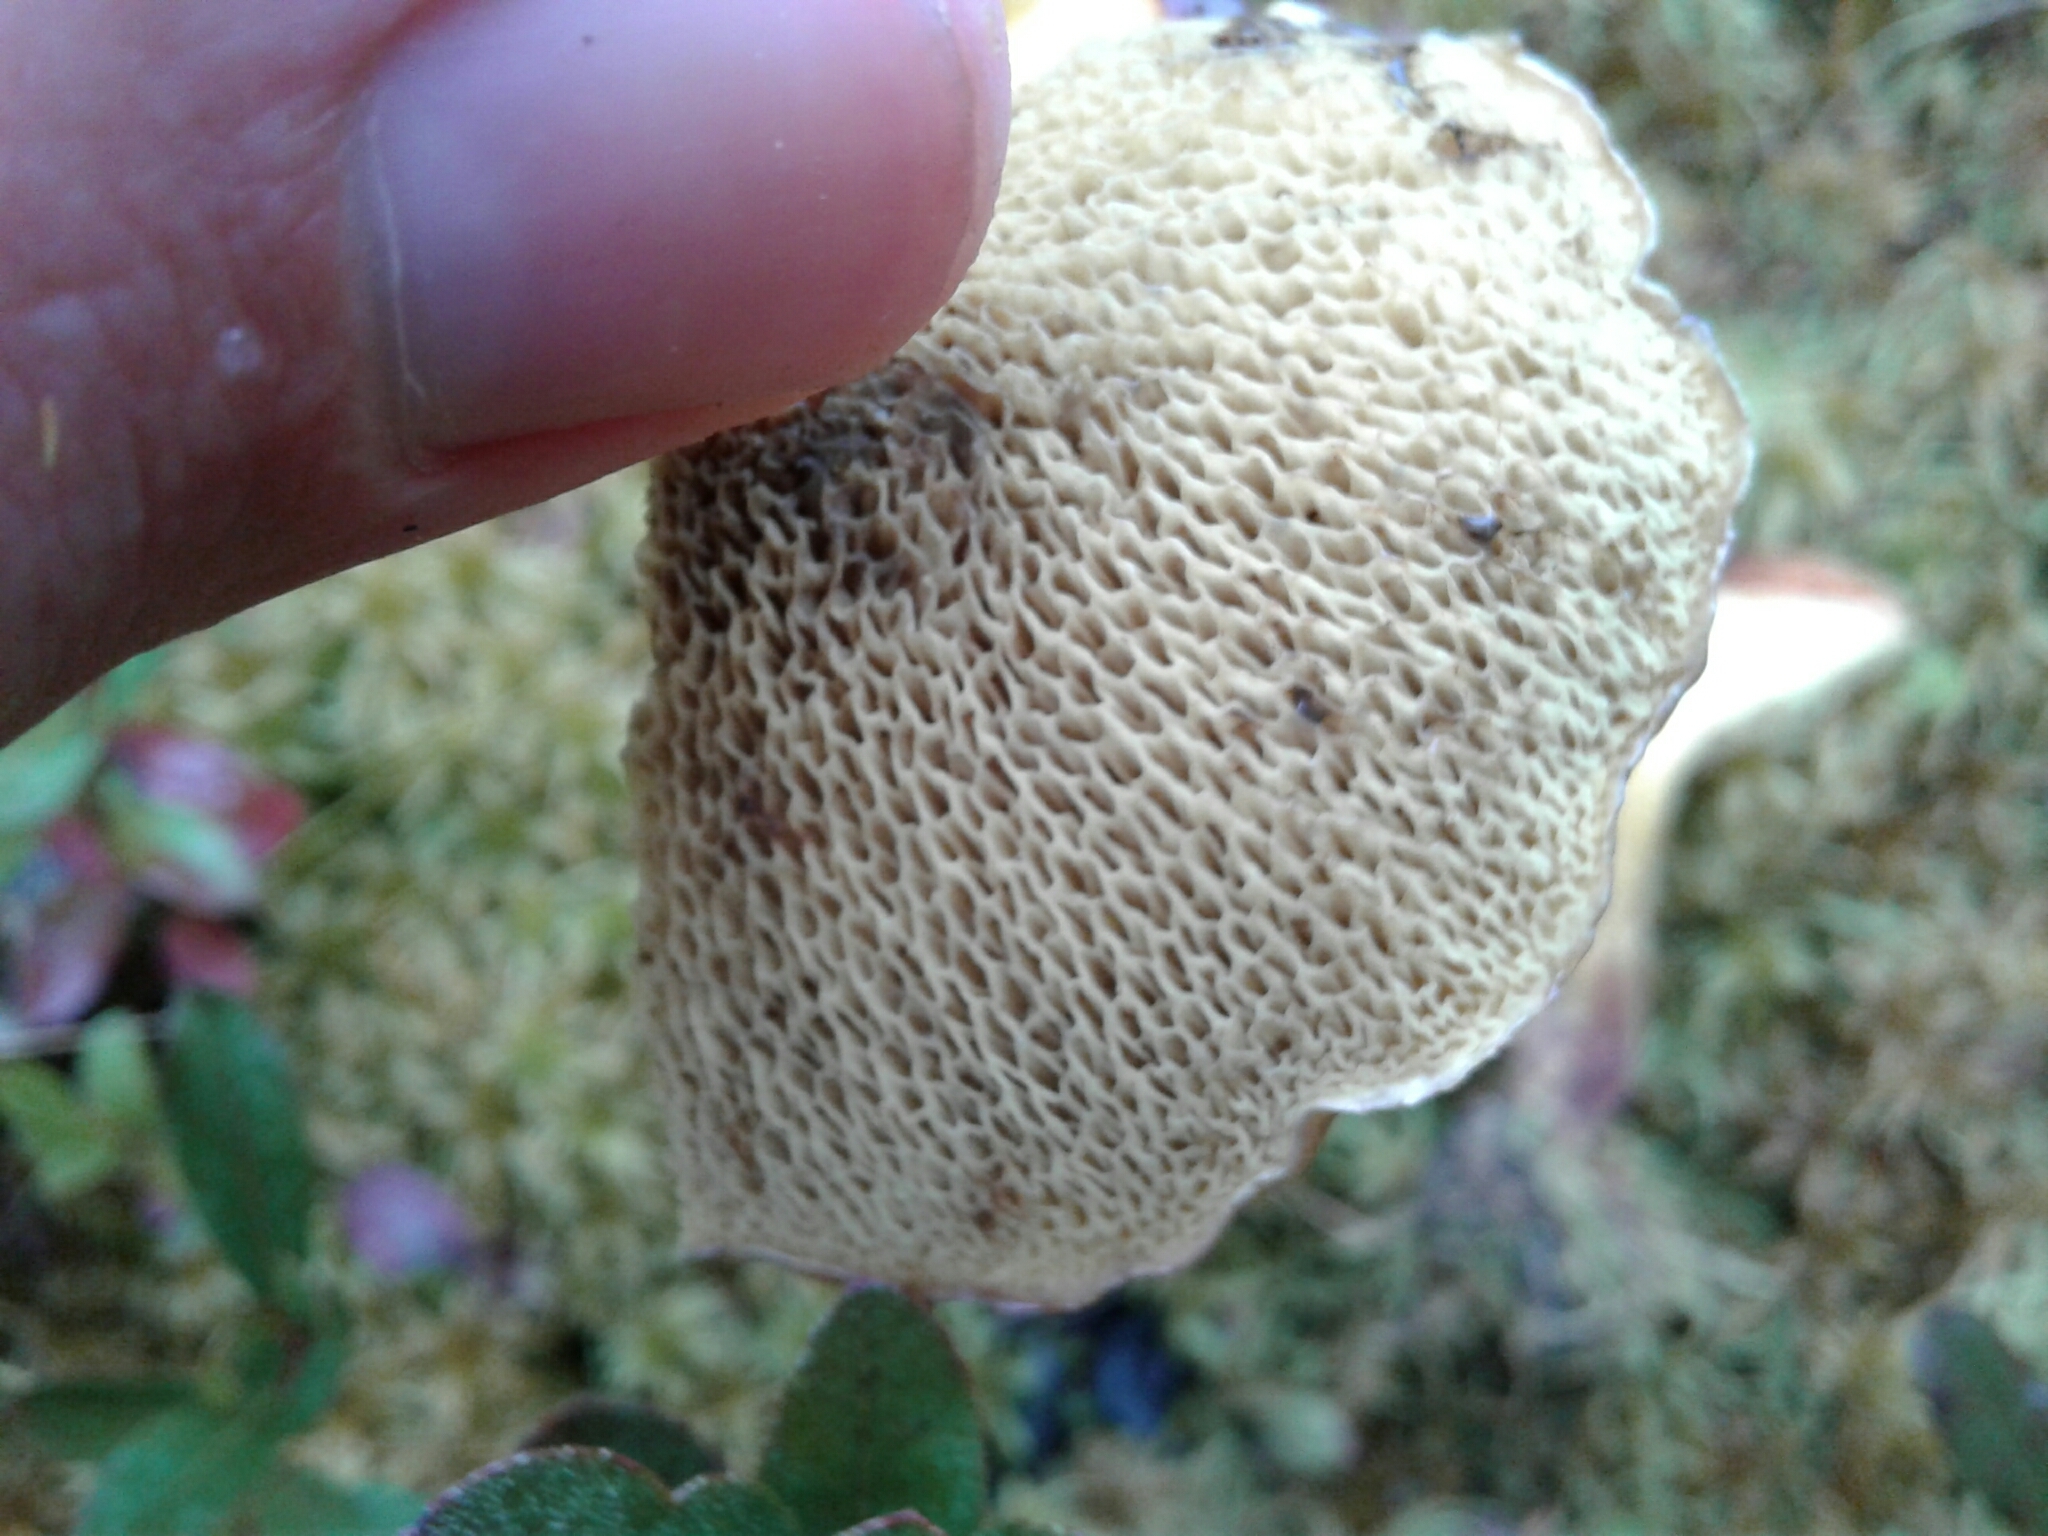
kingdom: Fungi
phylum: Basidiomycota
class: Agaricomycetes
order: Boletales
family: Suillaceae
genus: Boletinus
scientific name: Boletinus spectabilis
